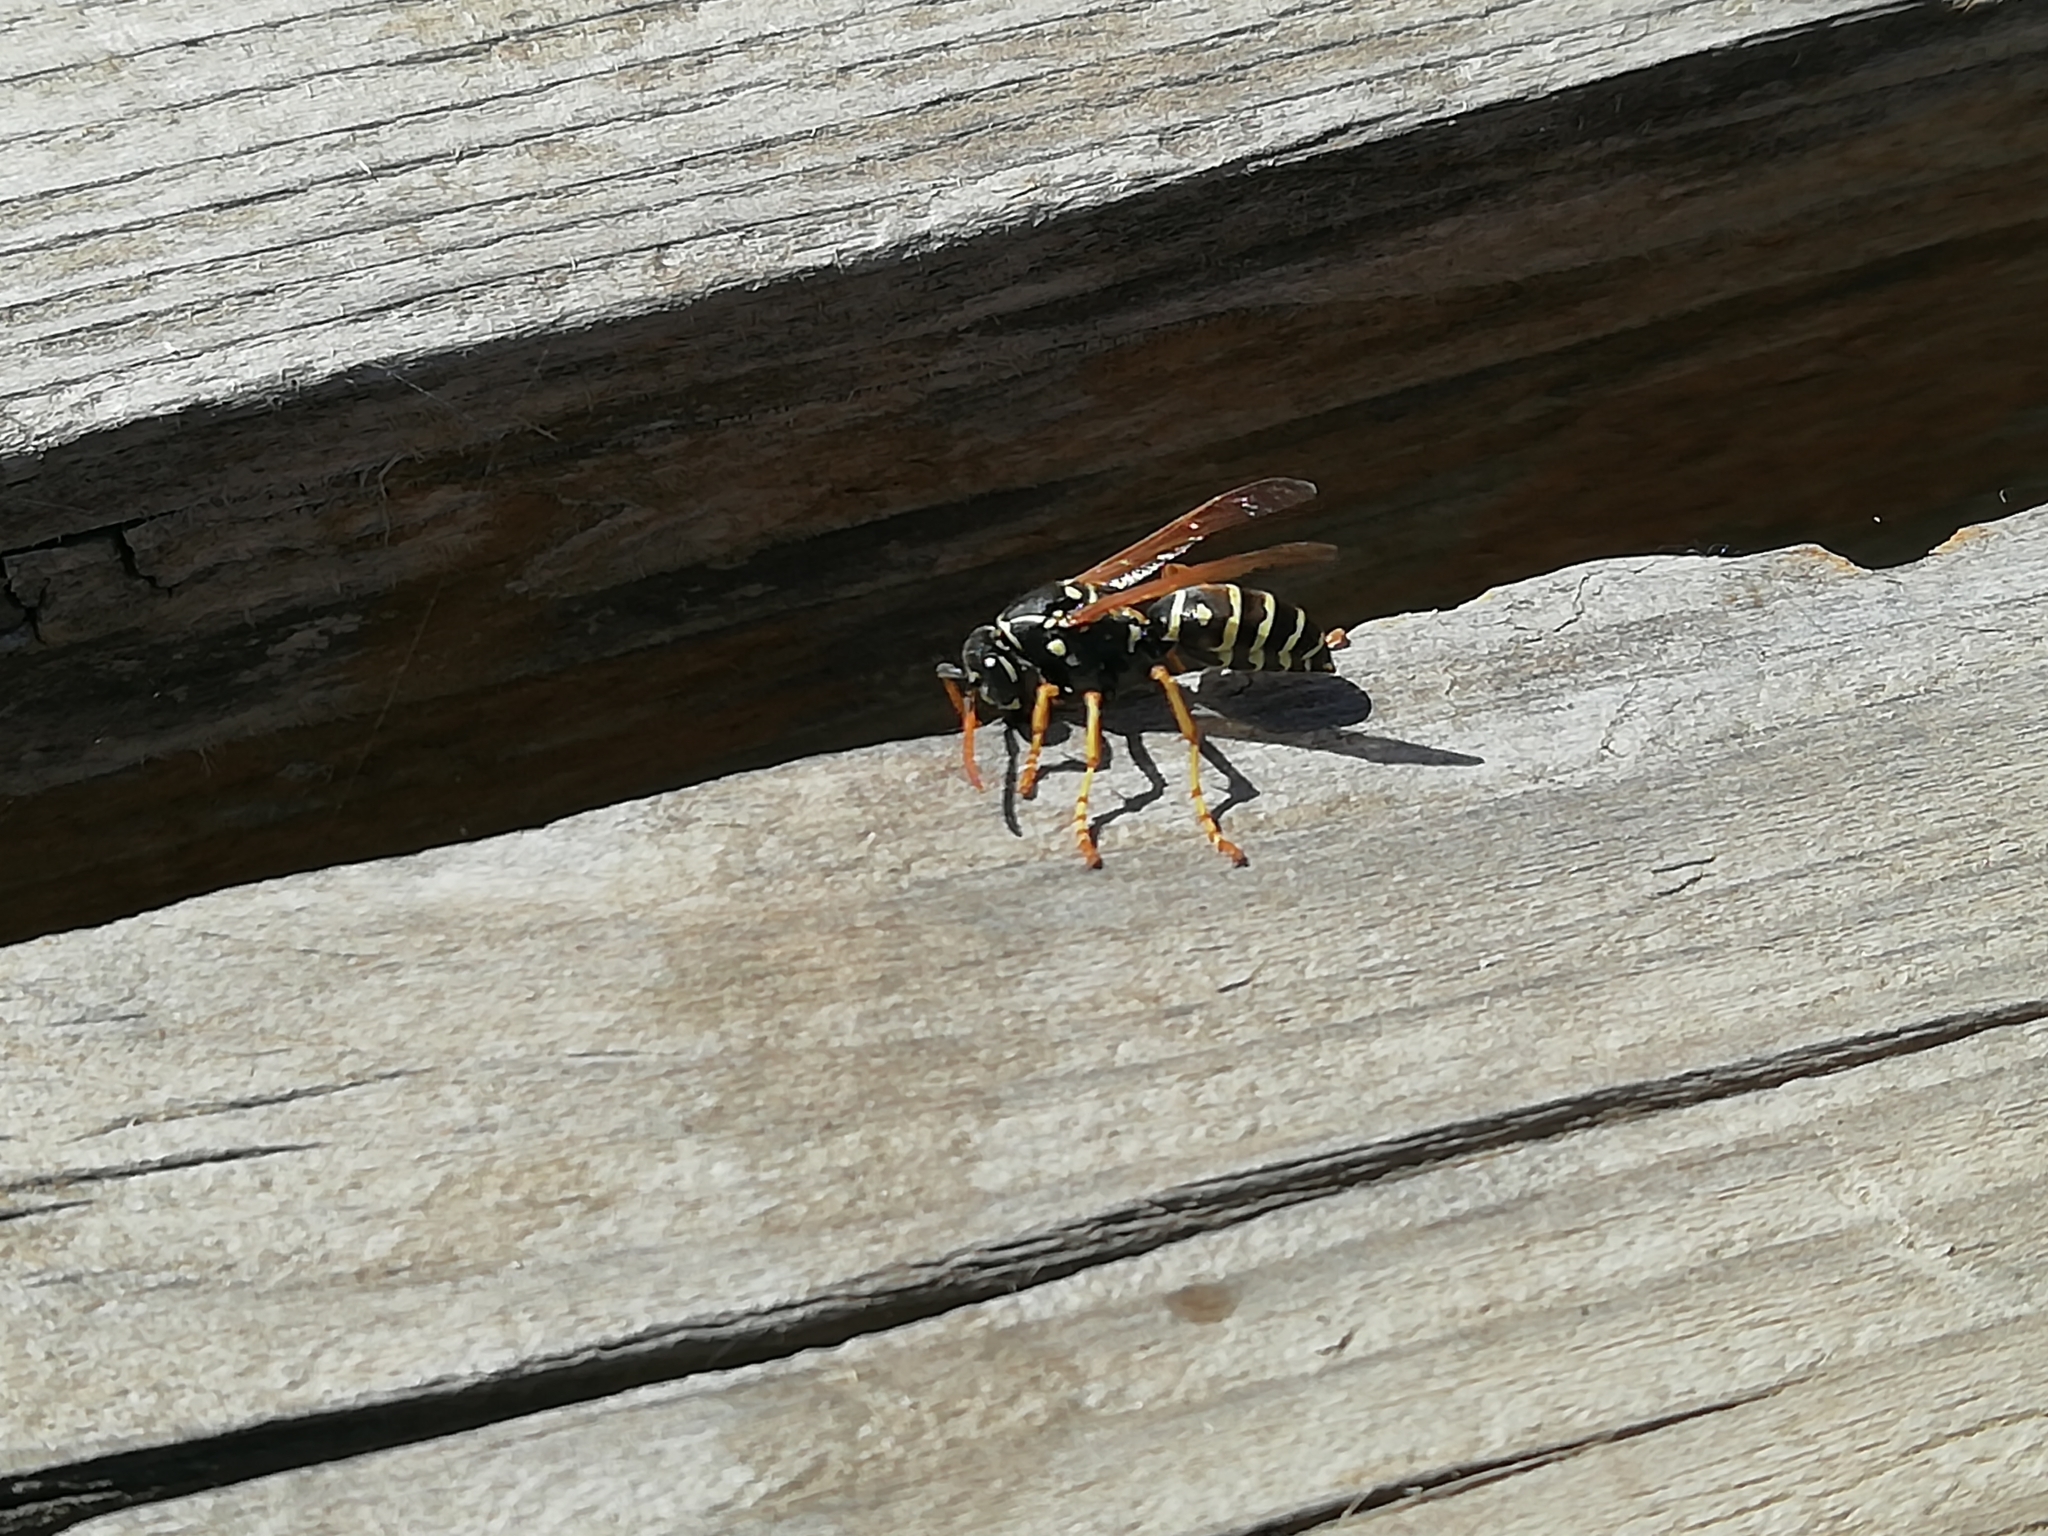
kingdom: Animalia
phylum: Arthropoda
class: Insecta
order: Hymenoptera
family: Eumenidae
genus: Polistes
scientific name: Polistes nimpha
